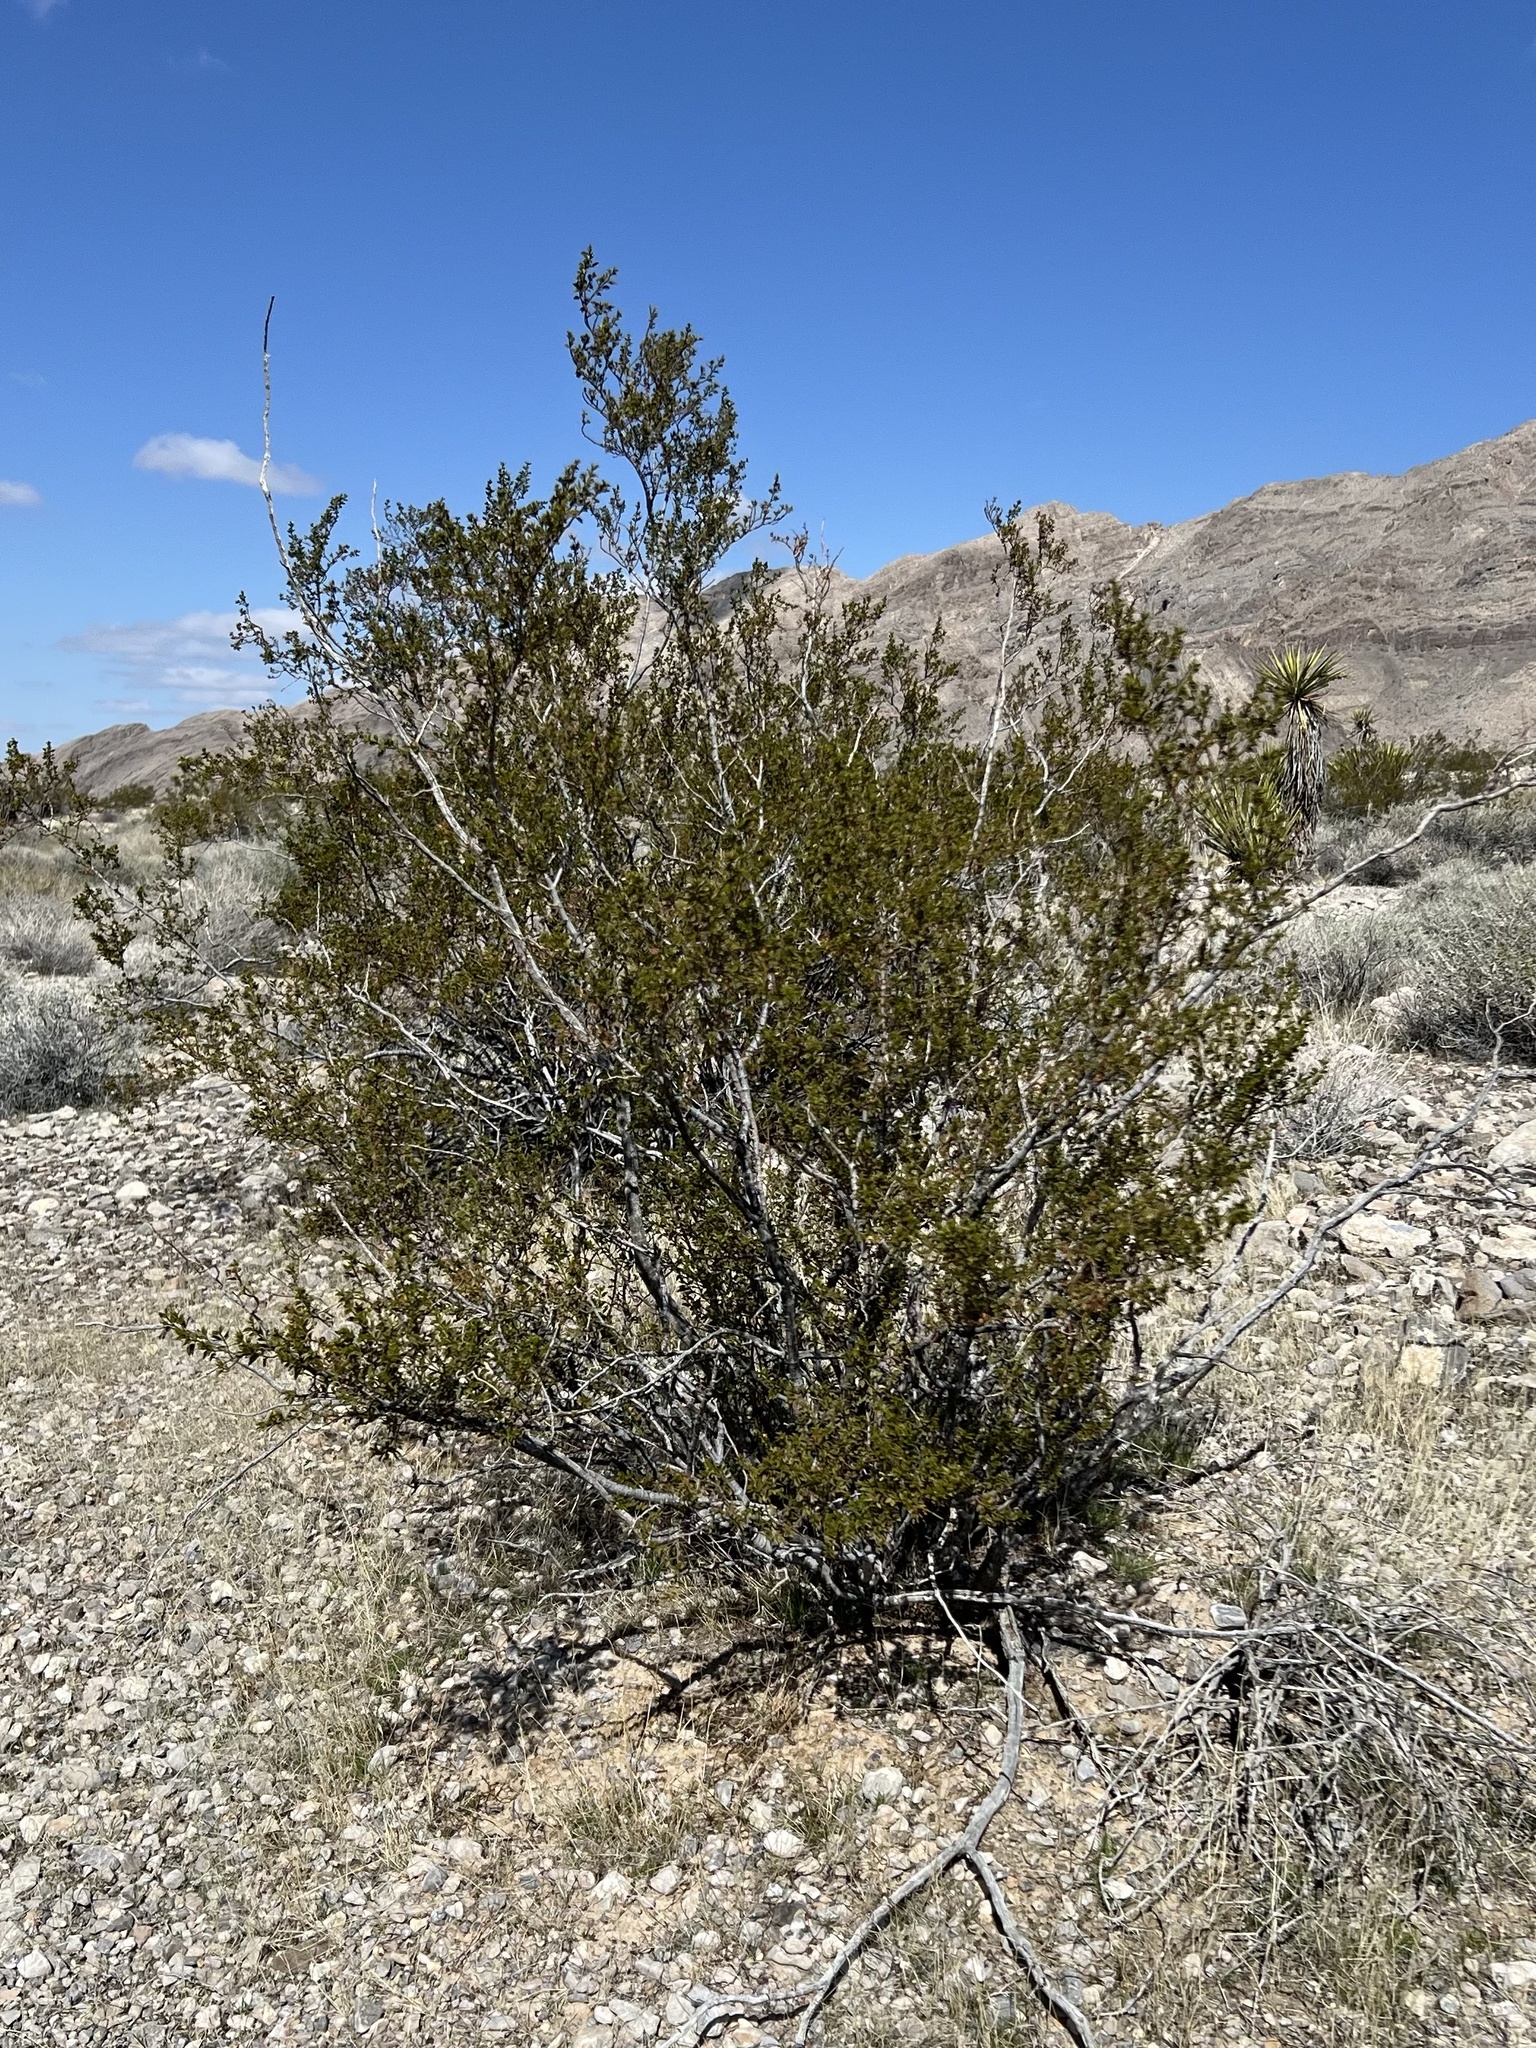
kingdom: Plantae
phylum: Tracheophyta
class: Magnoliopsida
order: Zygophyllales
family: Zygophyllaceae
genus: Larrea
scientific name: Larrea tridentata
